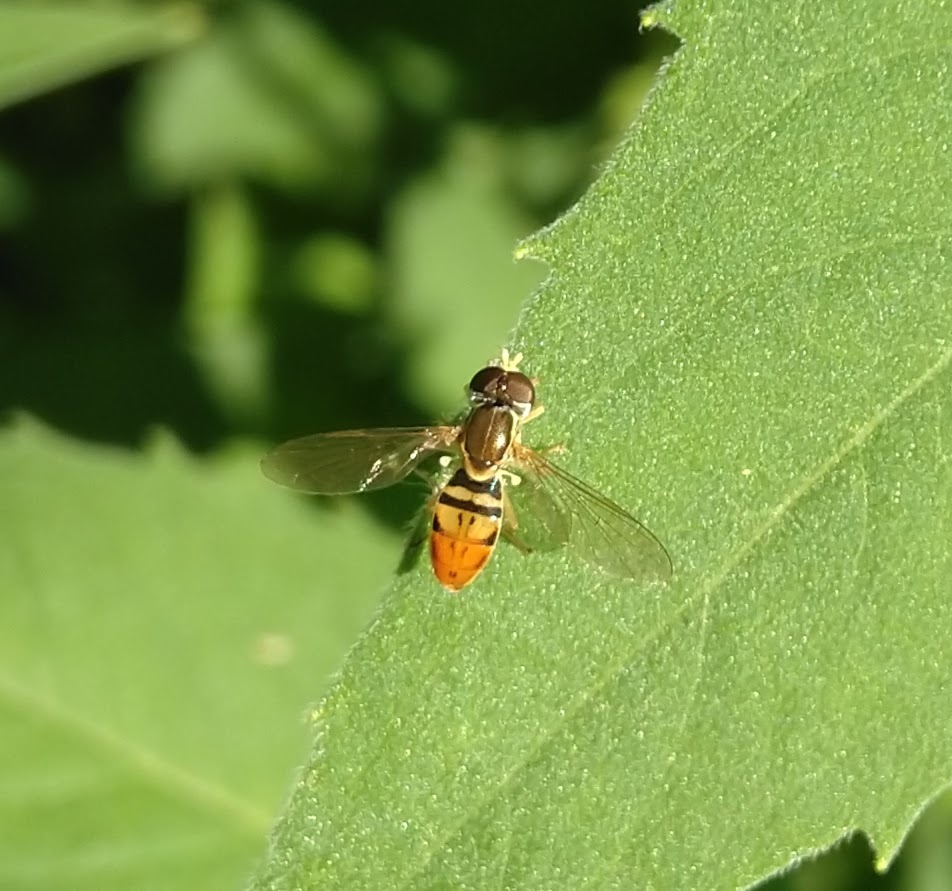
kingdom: Animalia
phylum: Arthropoda
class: Insecta
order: Diptera
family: Syrphidae
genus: Toxomerus
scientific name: Toxomerus marginatus
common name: Syrphid fly
